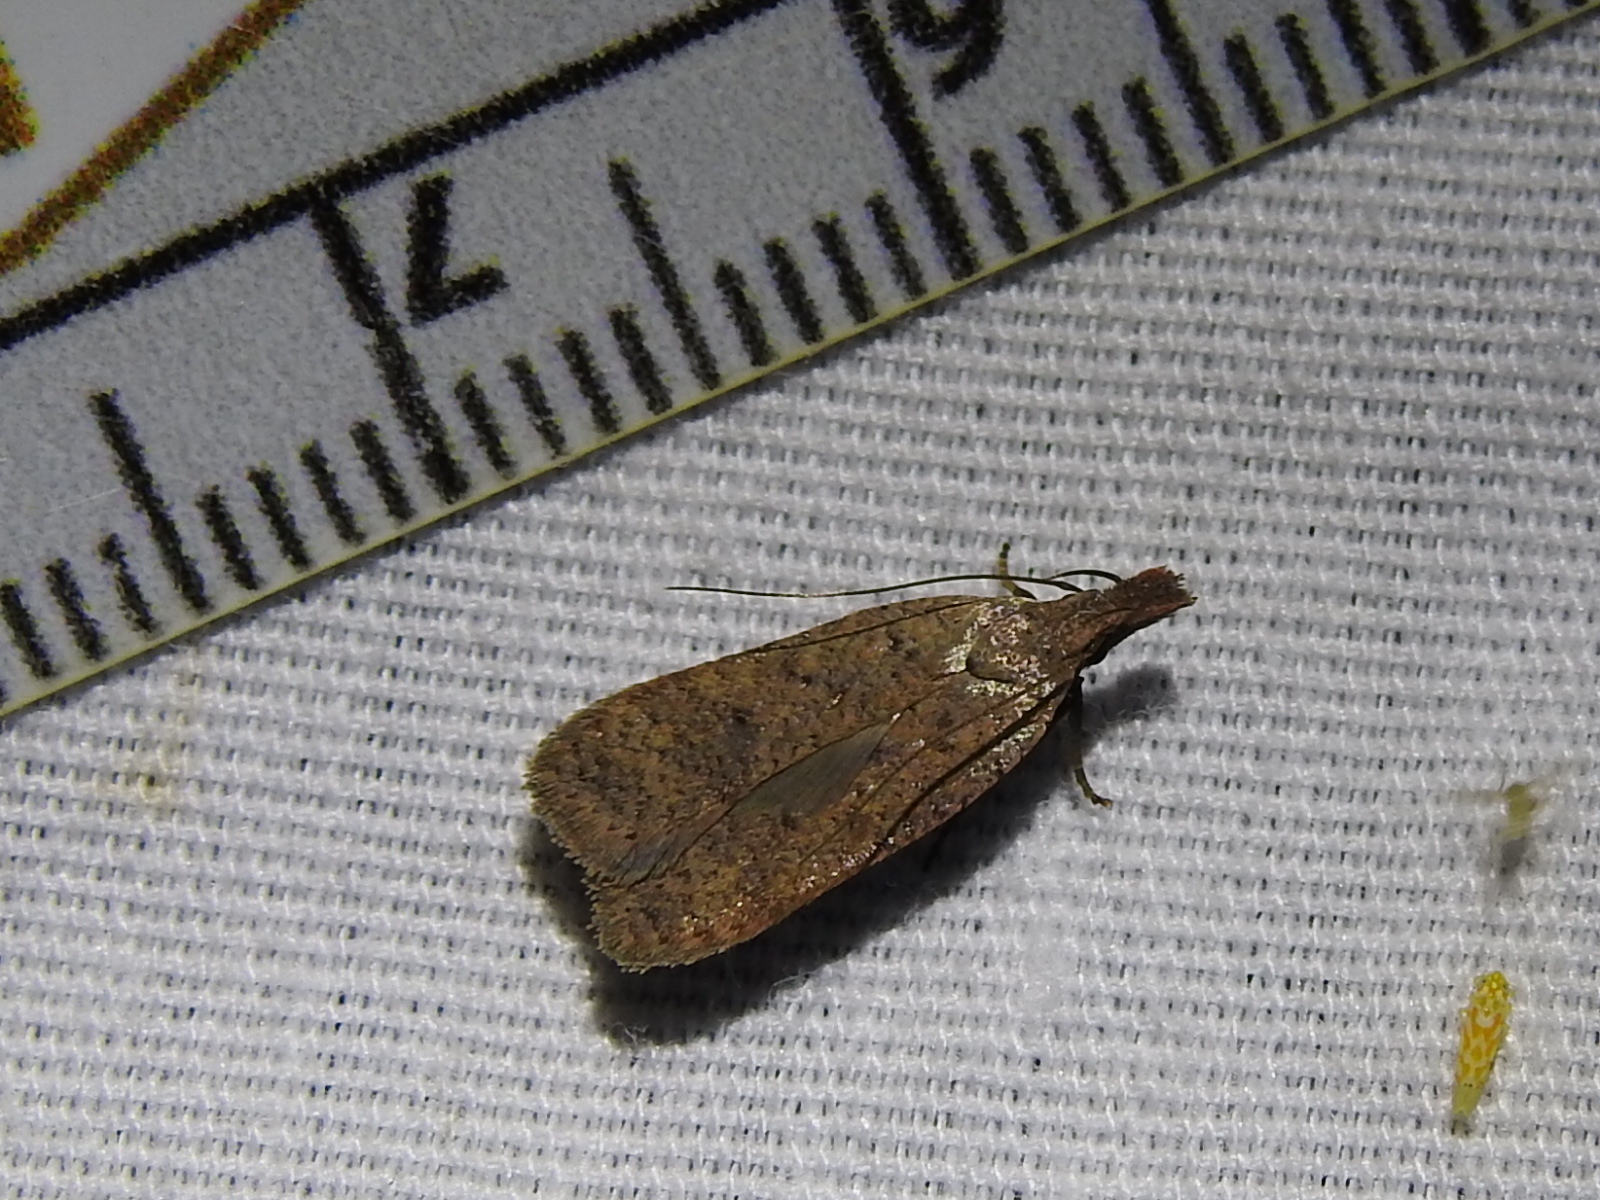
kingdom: Animalia
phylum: Arthropoda
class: Insecta
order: Lepidoptera
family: Gelechiidae
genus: Dichomeris
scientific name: Dichomeris georgiella
